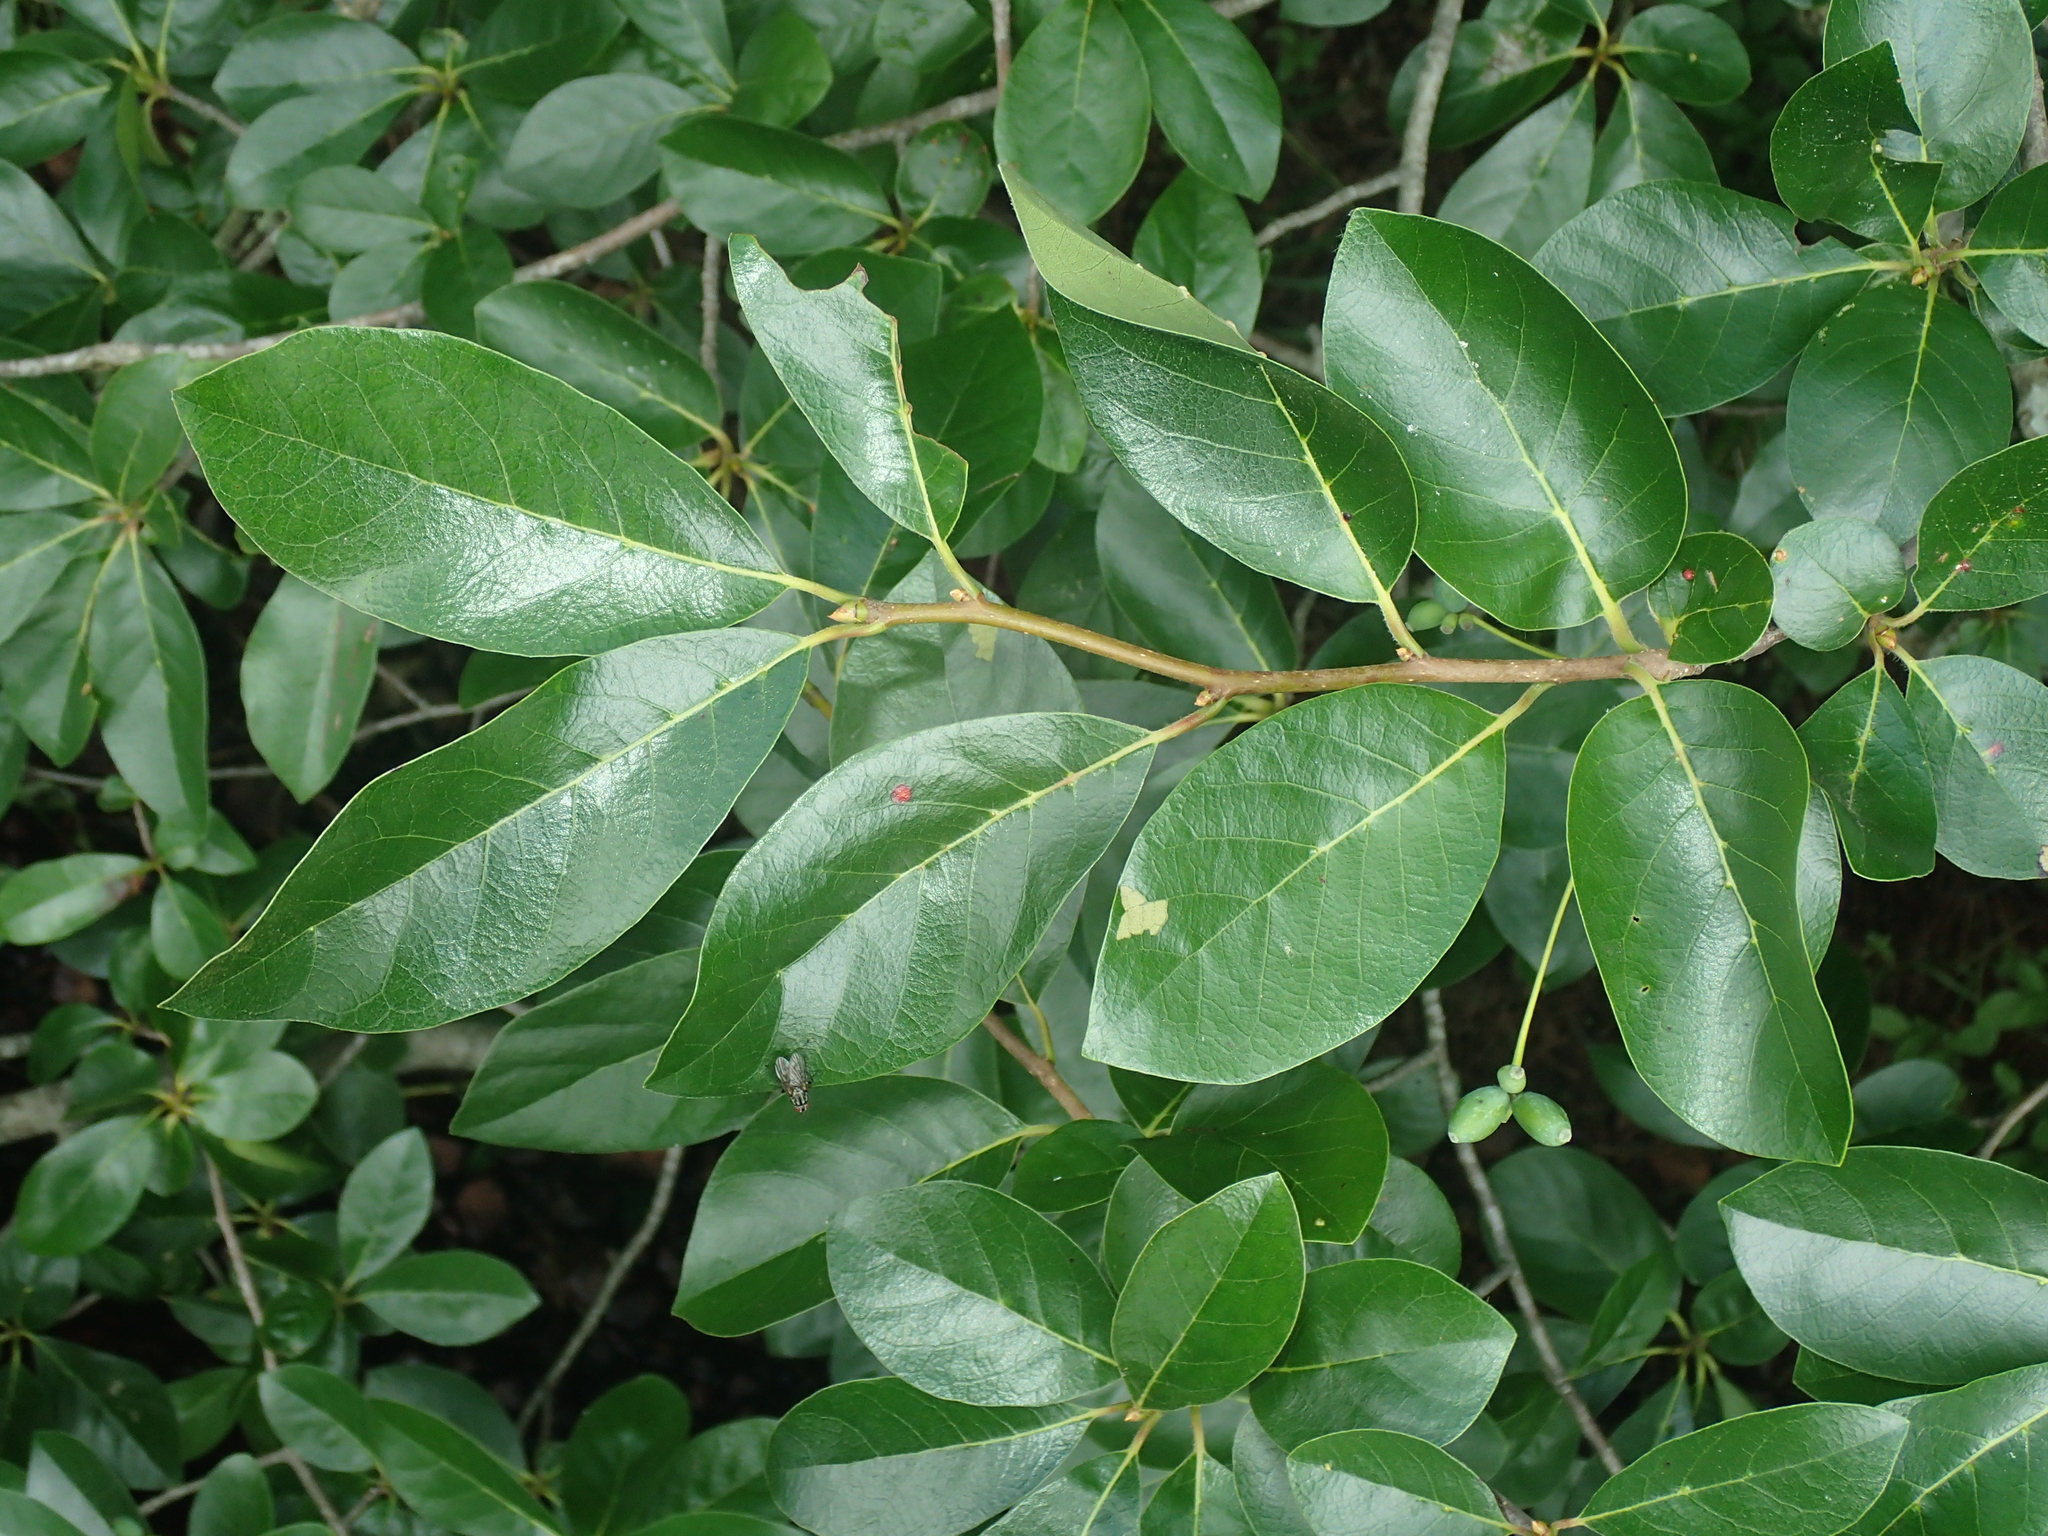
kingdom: Plantae
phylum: Tracheophyta
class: Magnoliopsida
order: Cornales
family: Nyssaceae
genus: Nyssa
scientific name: Nyssa sylvatica
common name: Black tupelo
